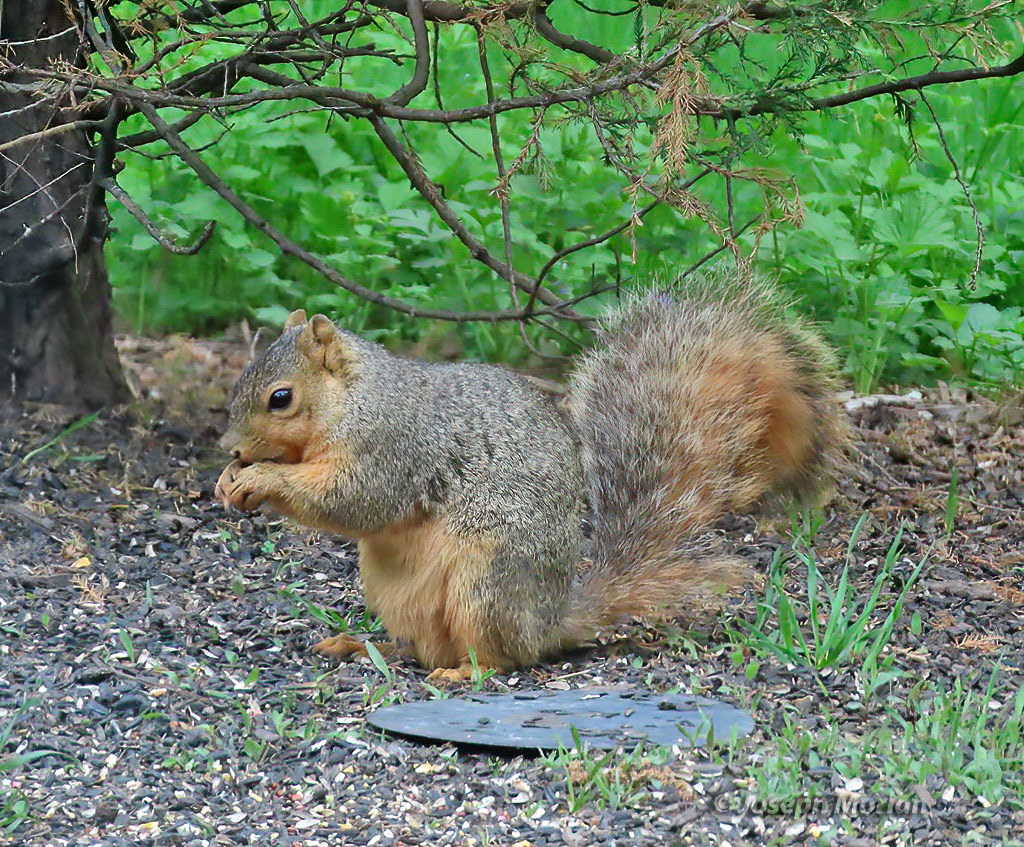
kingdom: Animalia
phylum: Chordata
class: Mammalia
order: Rodentia
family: Sciuridae
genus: Sciurus
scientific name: Sciurus niger
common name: Fox squirrel
